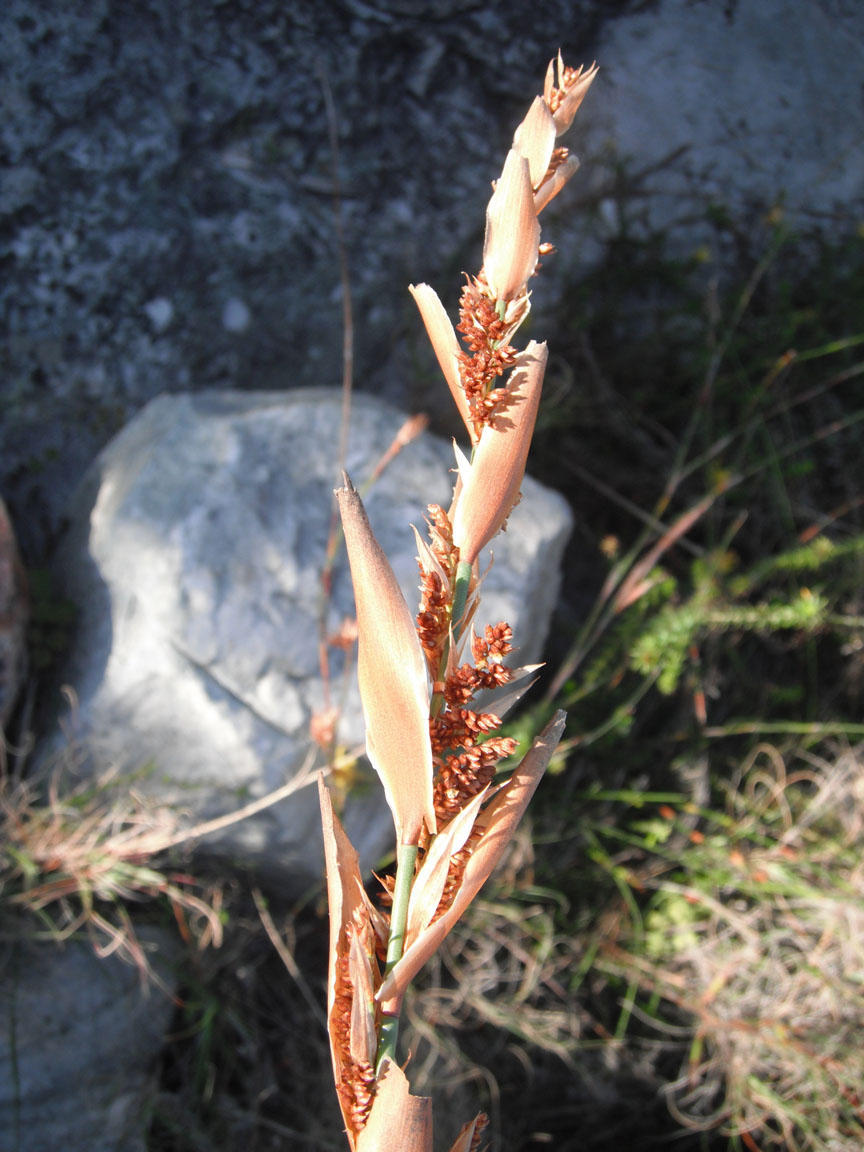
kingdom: Plantae
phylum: Tracheophyta
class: Liliopsida
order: Poales
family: Restionaceae
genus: Elegia
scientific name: Elegia racemosa
